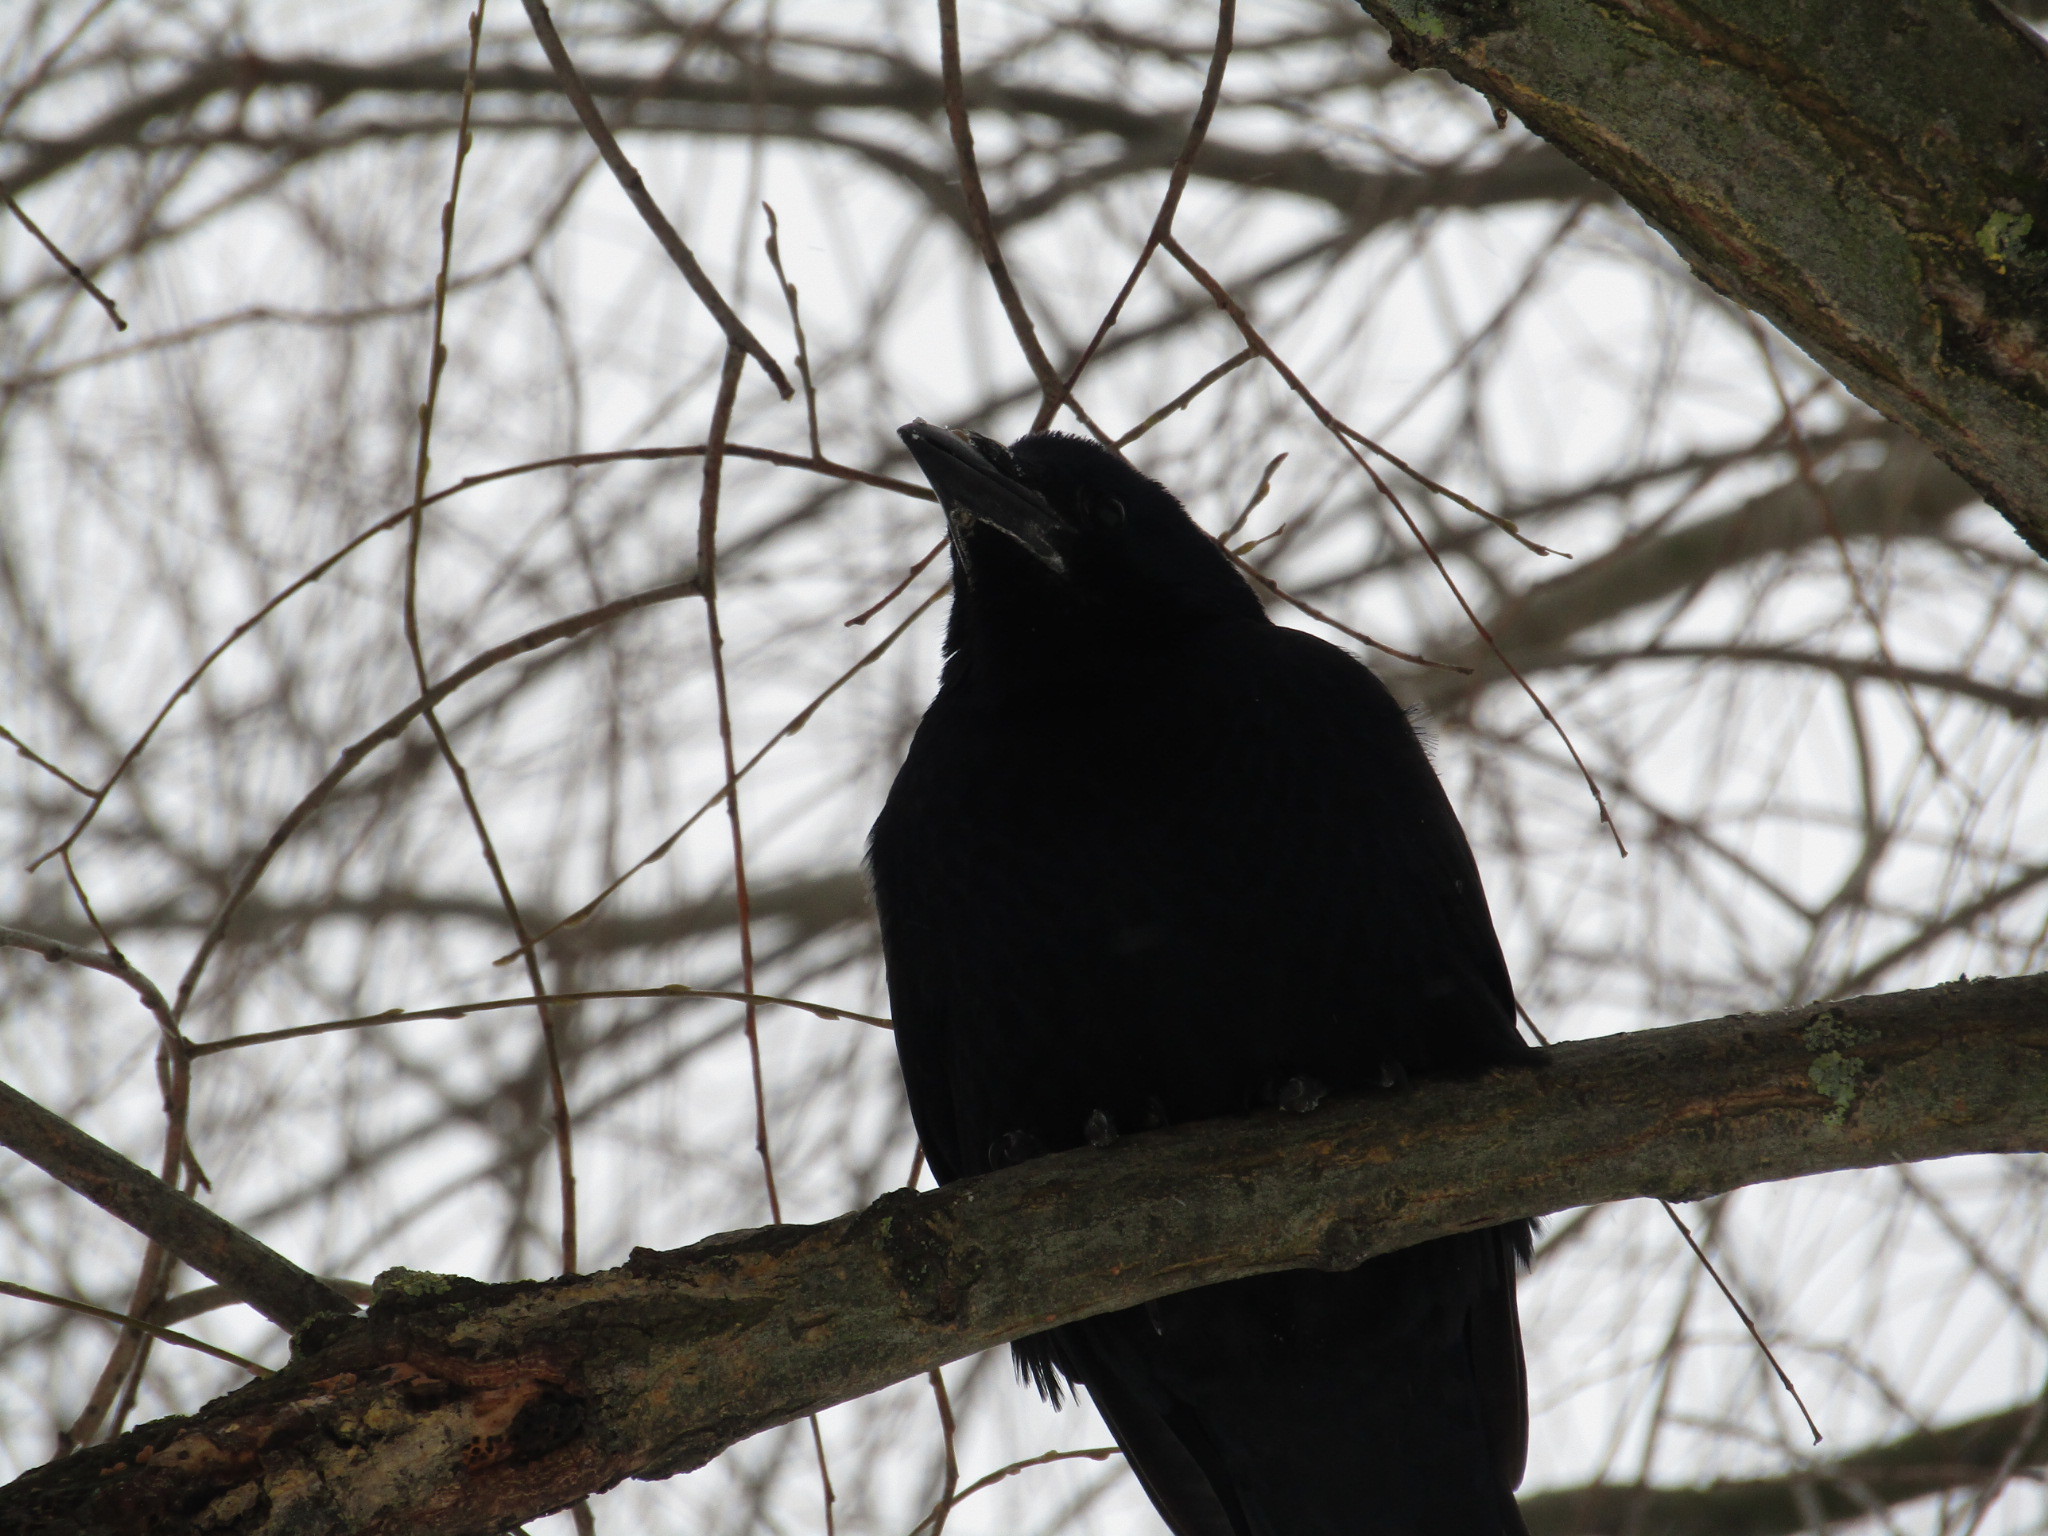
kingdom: Animalia
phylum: Chordata
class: Aves
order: Passeriformes
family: Corvidae
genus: Corvus
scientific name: Corvus frugilegus
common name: Rook
